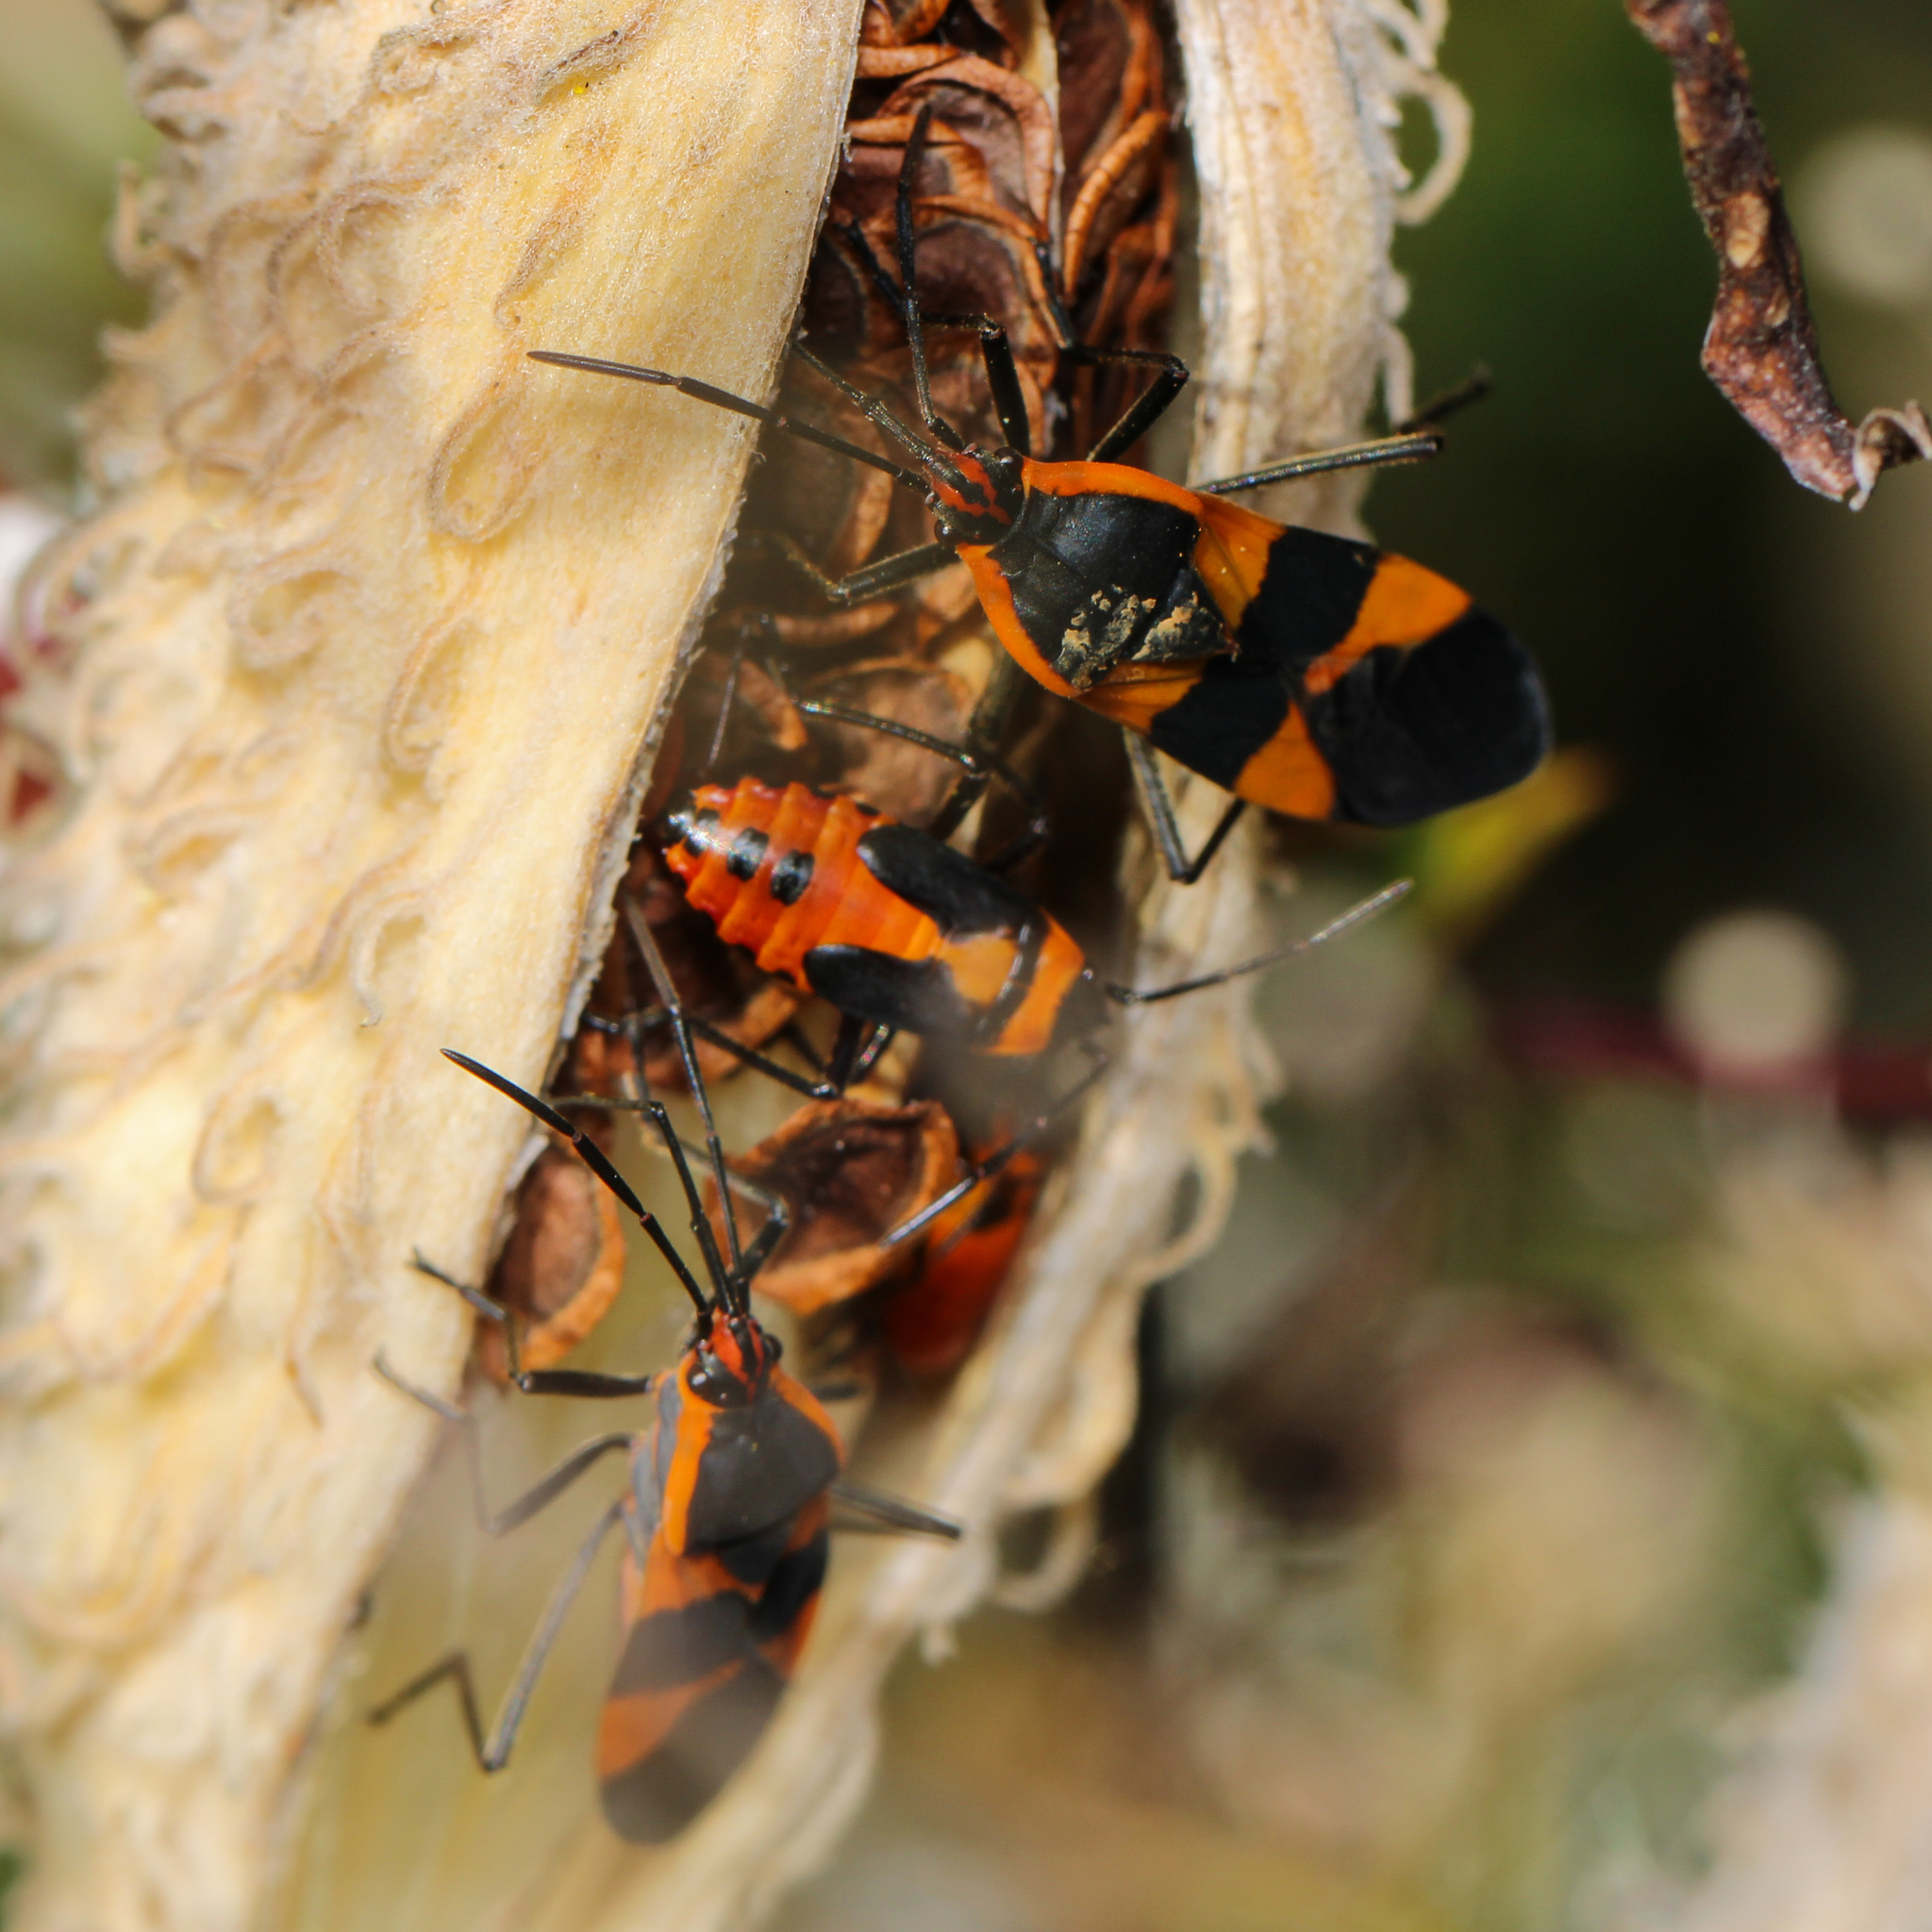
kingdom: Animalia
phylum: Arthropoda
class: Insecta
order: Hemiptera
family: Lygaeidae
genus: Oncopeltus
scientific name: Oncopeltus fasciatus
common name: Large milkweed bug
